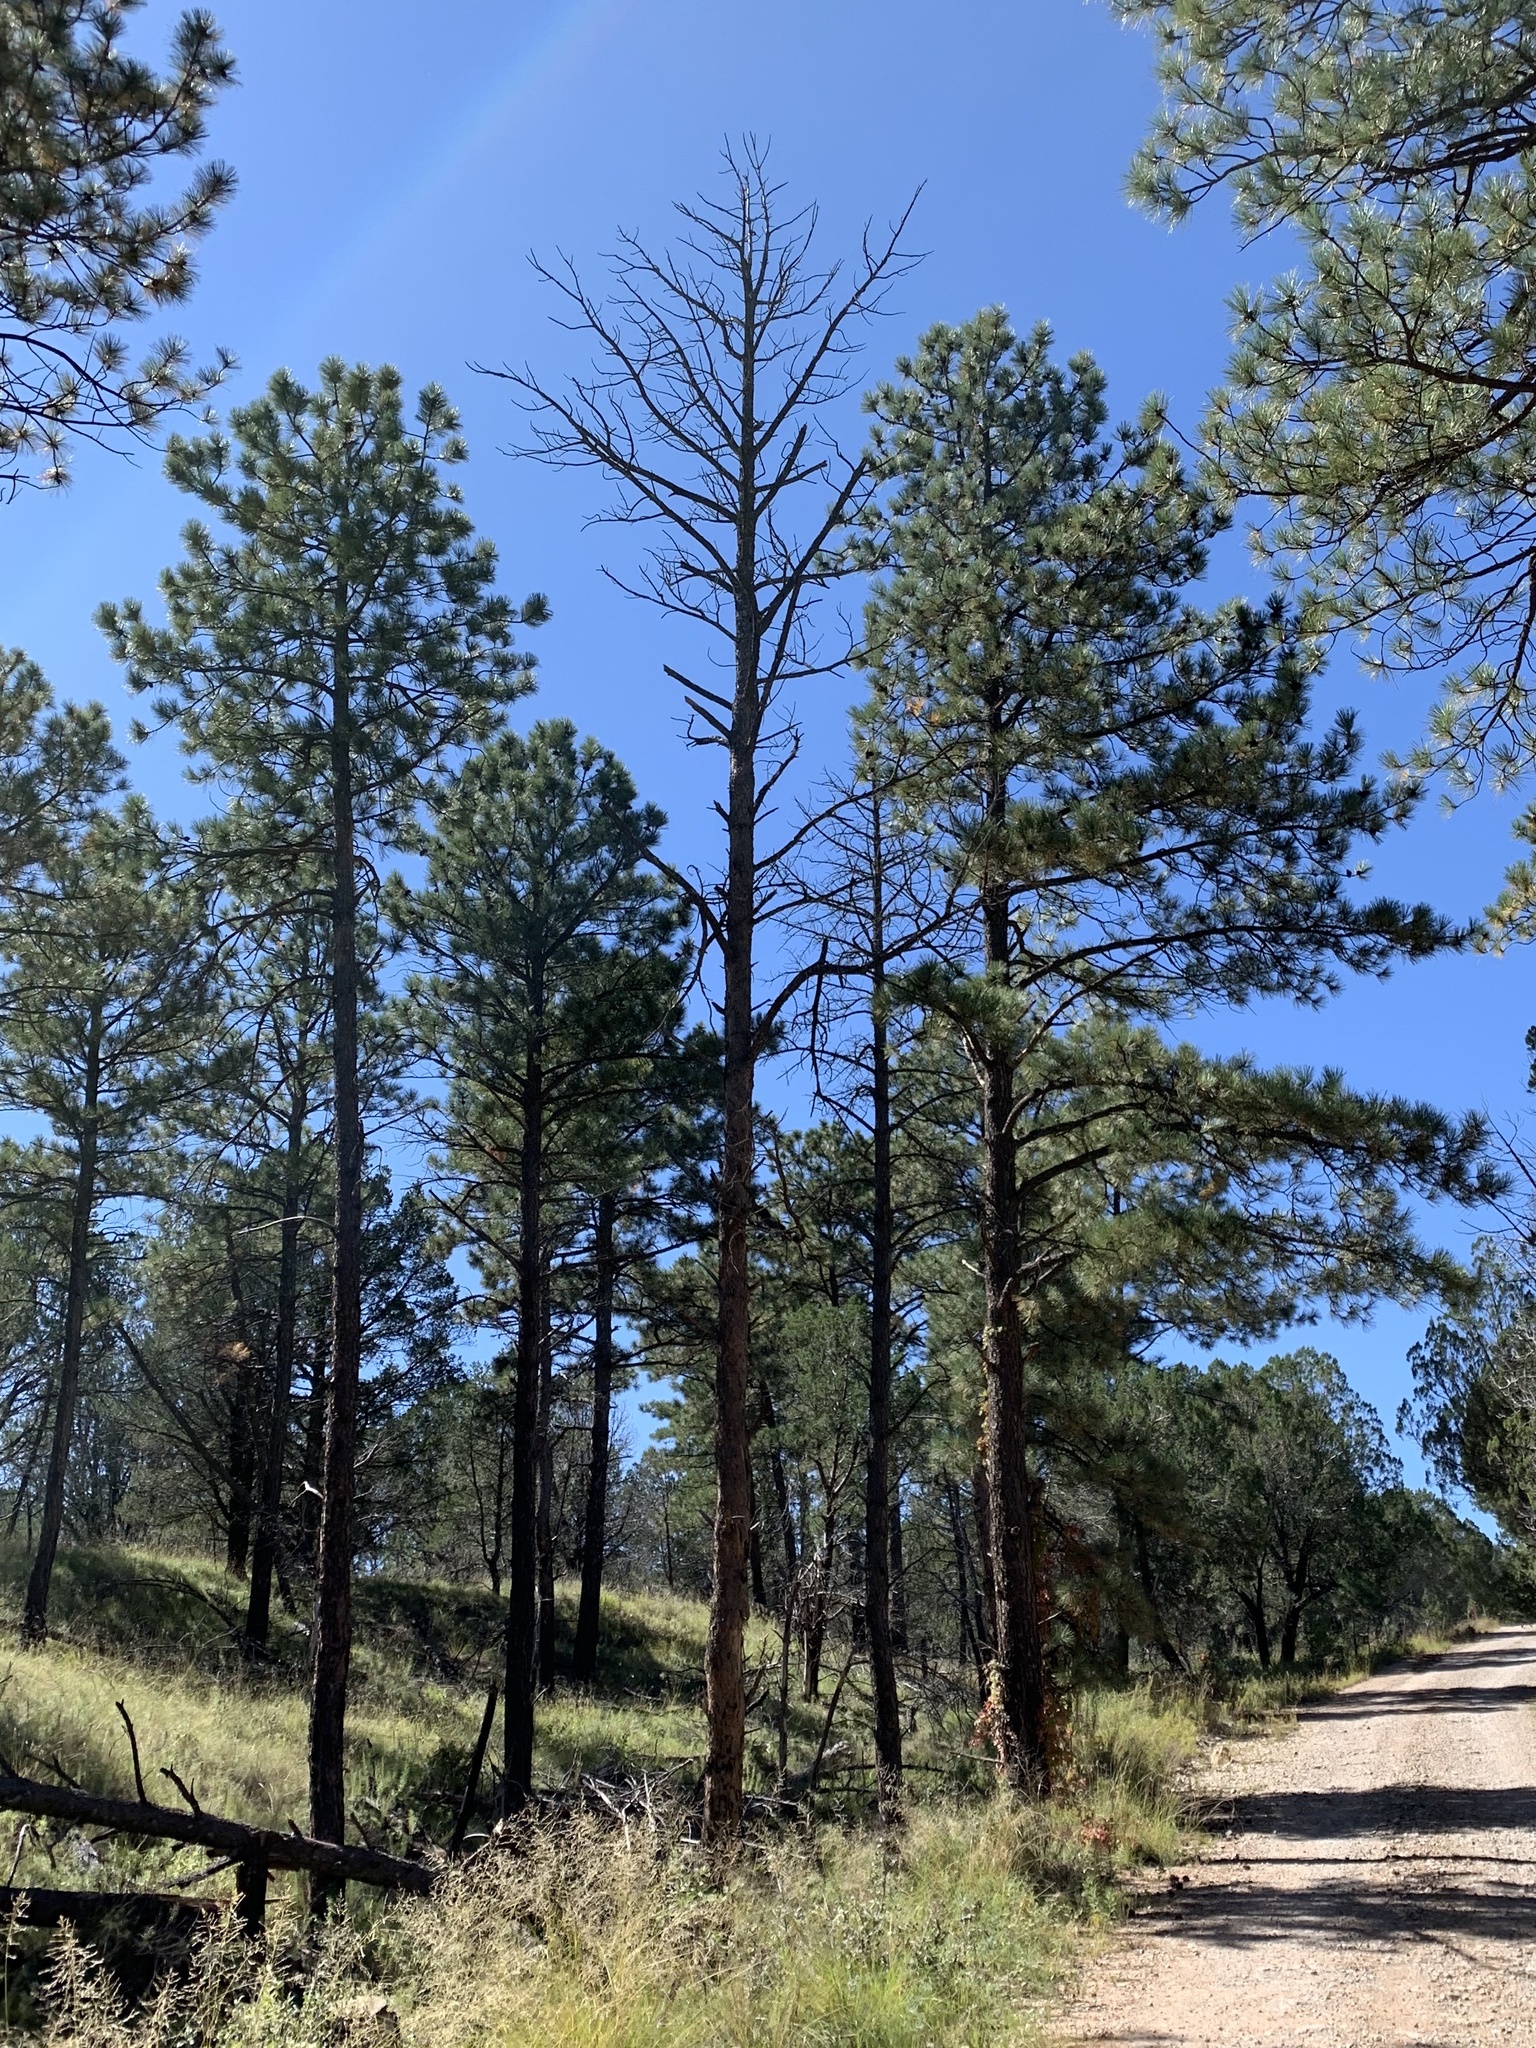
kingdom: Plantae
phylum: Tracheophyta
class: Pinopsida
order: Pinales
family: Pinaceae
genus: Pinus
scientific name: Pinus ponderosa
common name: Western yellow-pine
